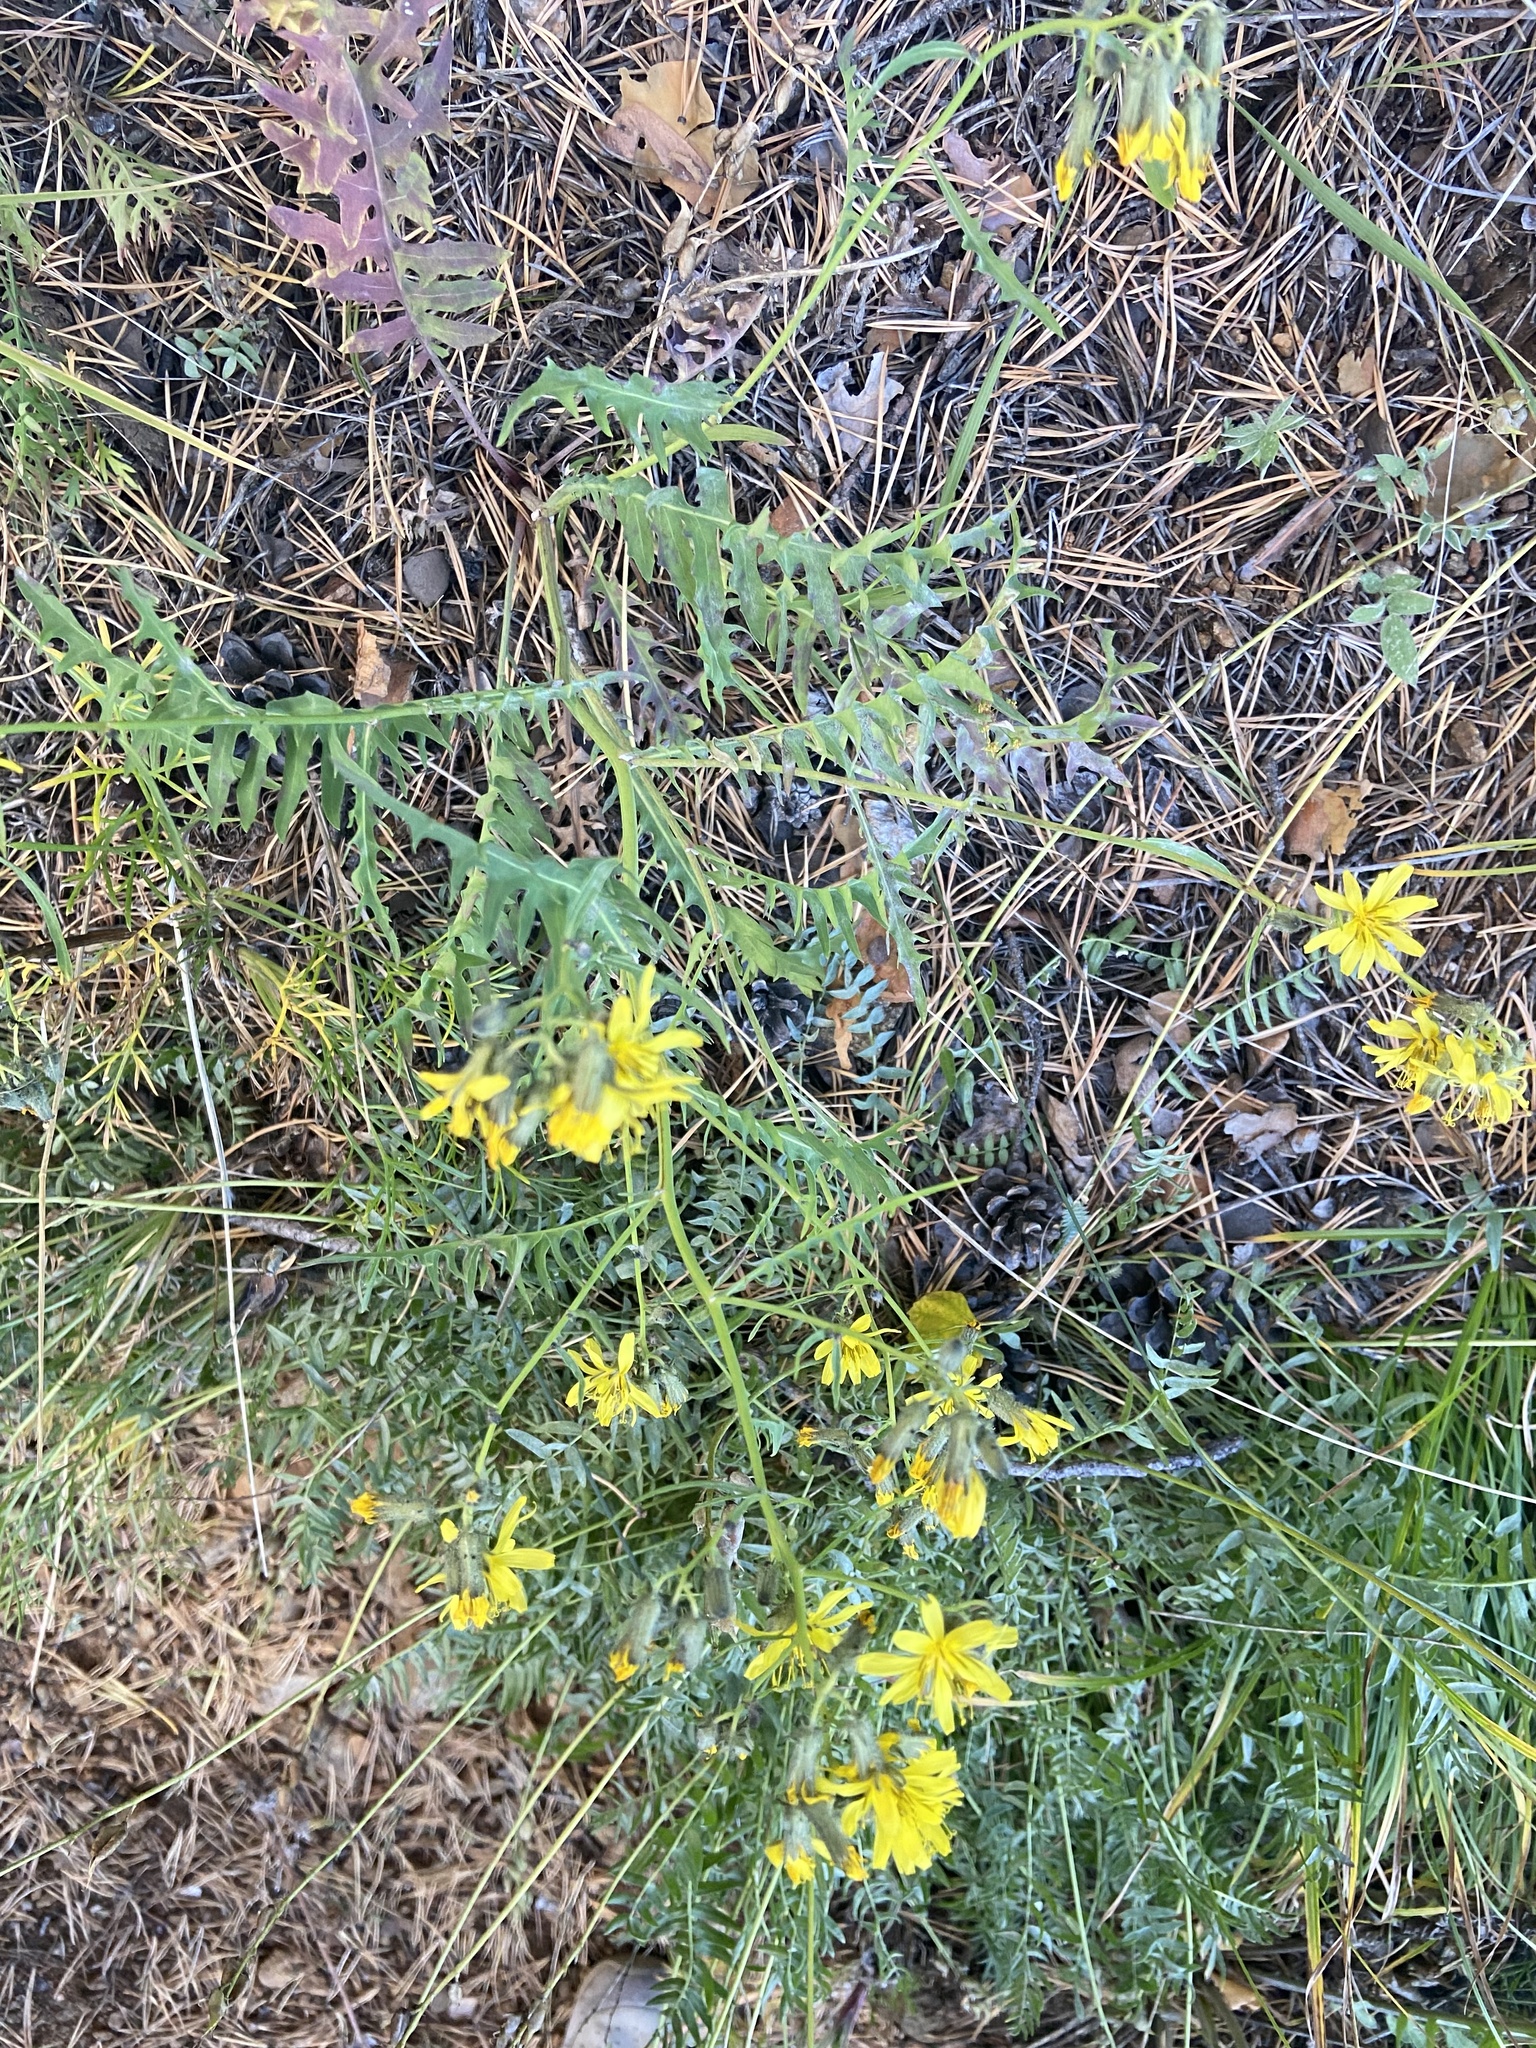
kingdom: Plantae
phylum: Tracheophyta
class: Magnoliopsida
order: Asterales
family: Asteraceae
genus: Crepidiastrum
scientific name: Crepidiastrum tenuifolium
